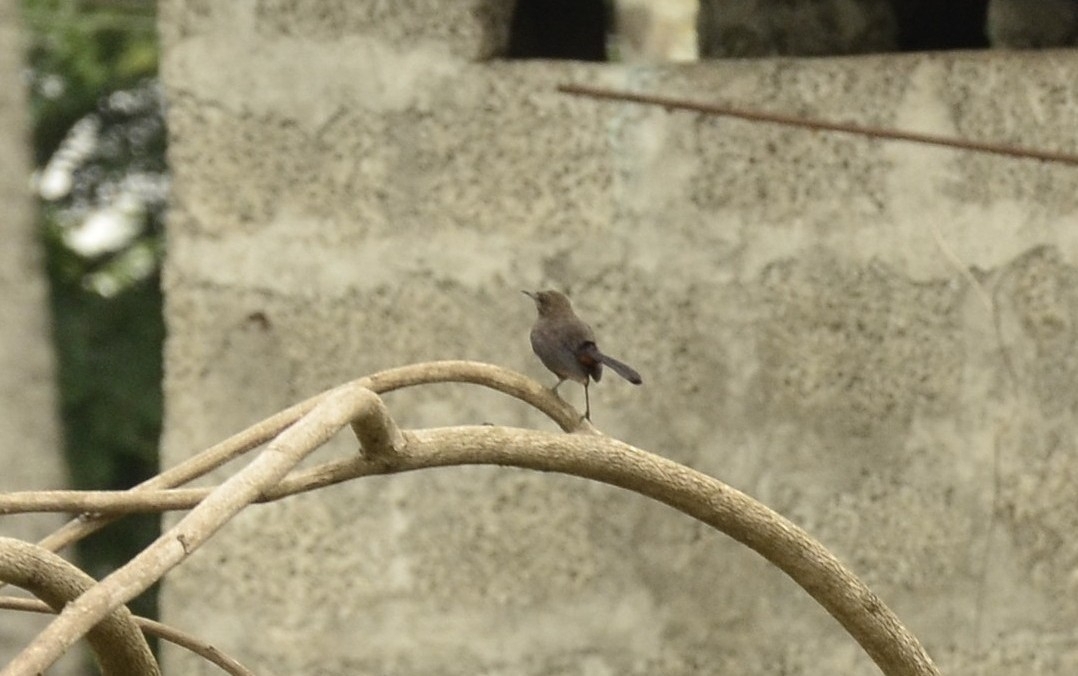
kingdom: Animalia
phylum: Chordata
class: Aves
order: Passeriformes
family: Muscicapidae
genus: Saxicoloides
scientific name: Saxicoloides fulicatus
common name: Indian robin
